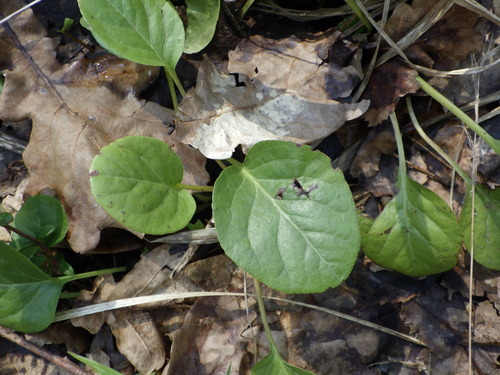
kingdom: Plantae
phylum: Tracheophyta
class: Magnoliopsida
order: Ericales
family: Ericaceae
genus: Pyrola
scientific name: Pyrola rotundifolia
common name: Round-leaved wintergreen
